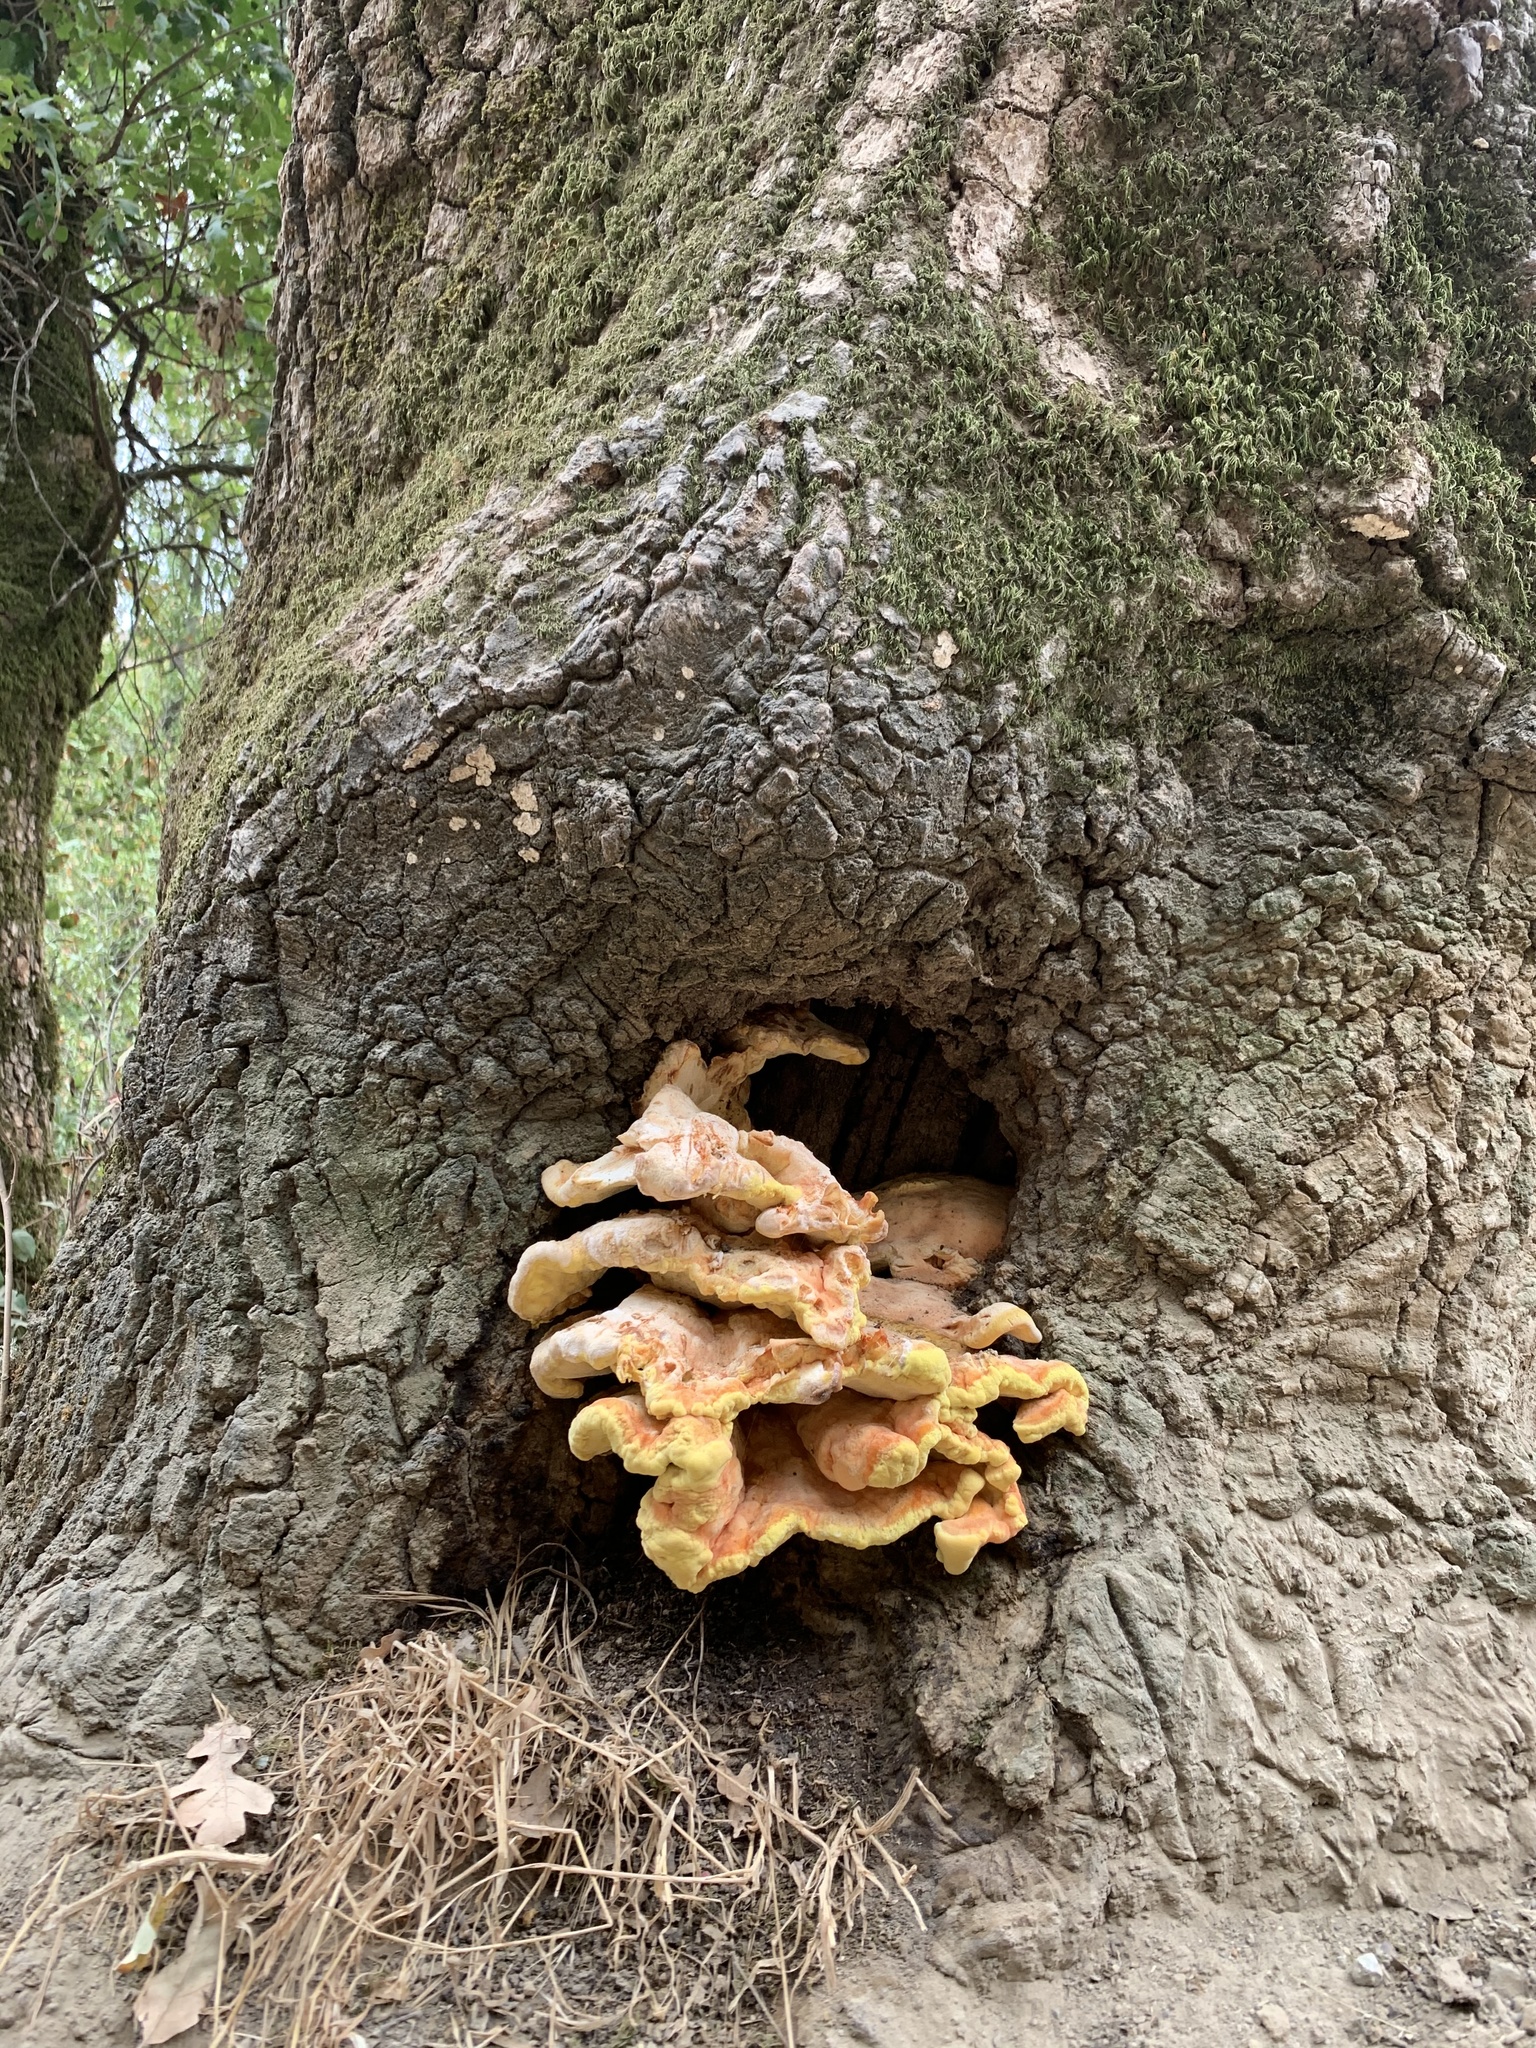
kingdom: Fungi
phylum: Basidiomycota
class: Agaricomycetes
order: Polyporales
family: Laetiporaceae
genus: Laetiporus
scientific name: Laetiporus gilbertsonii
